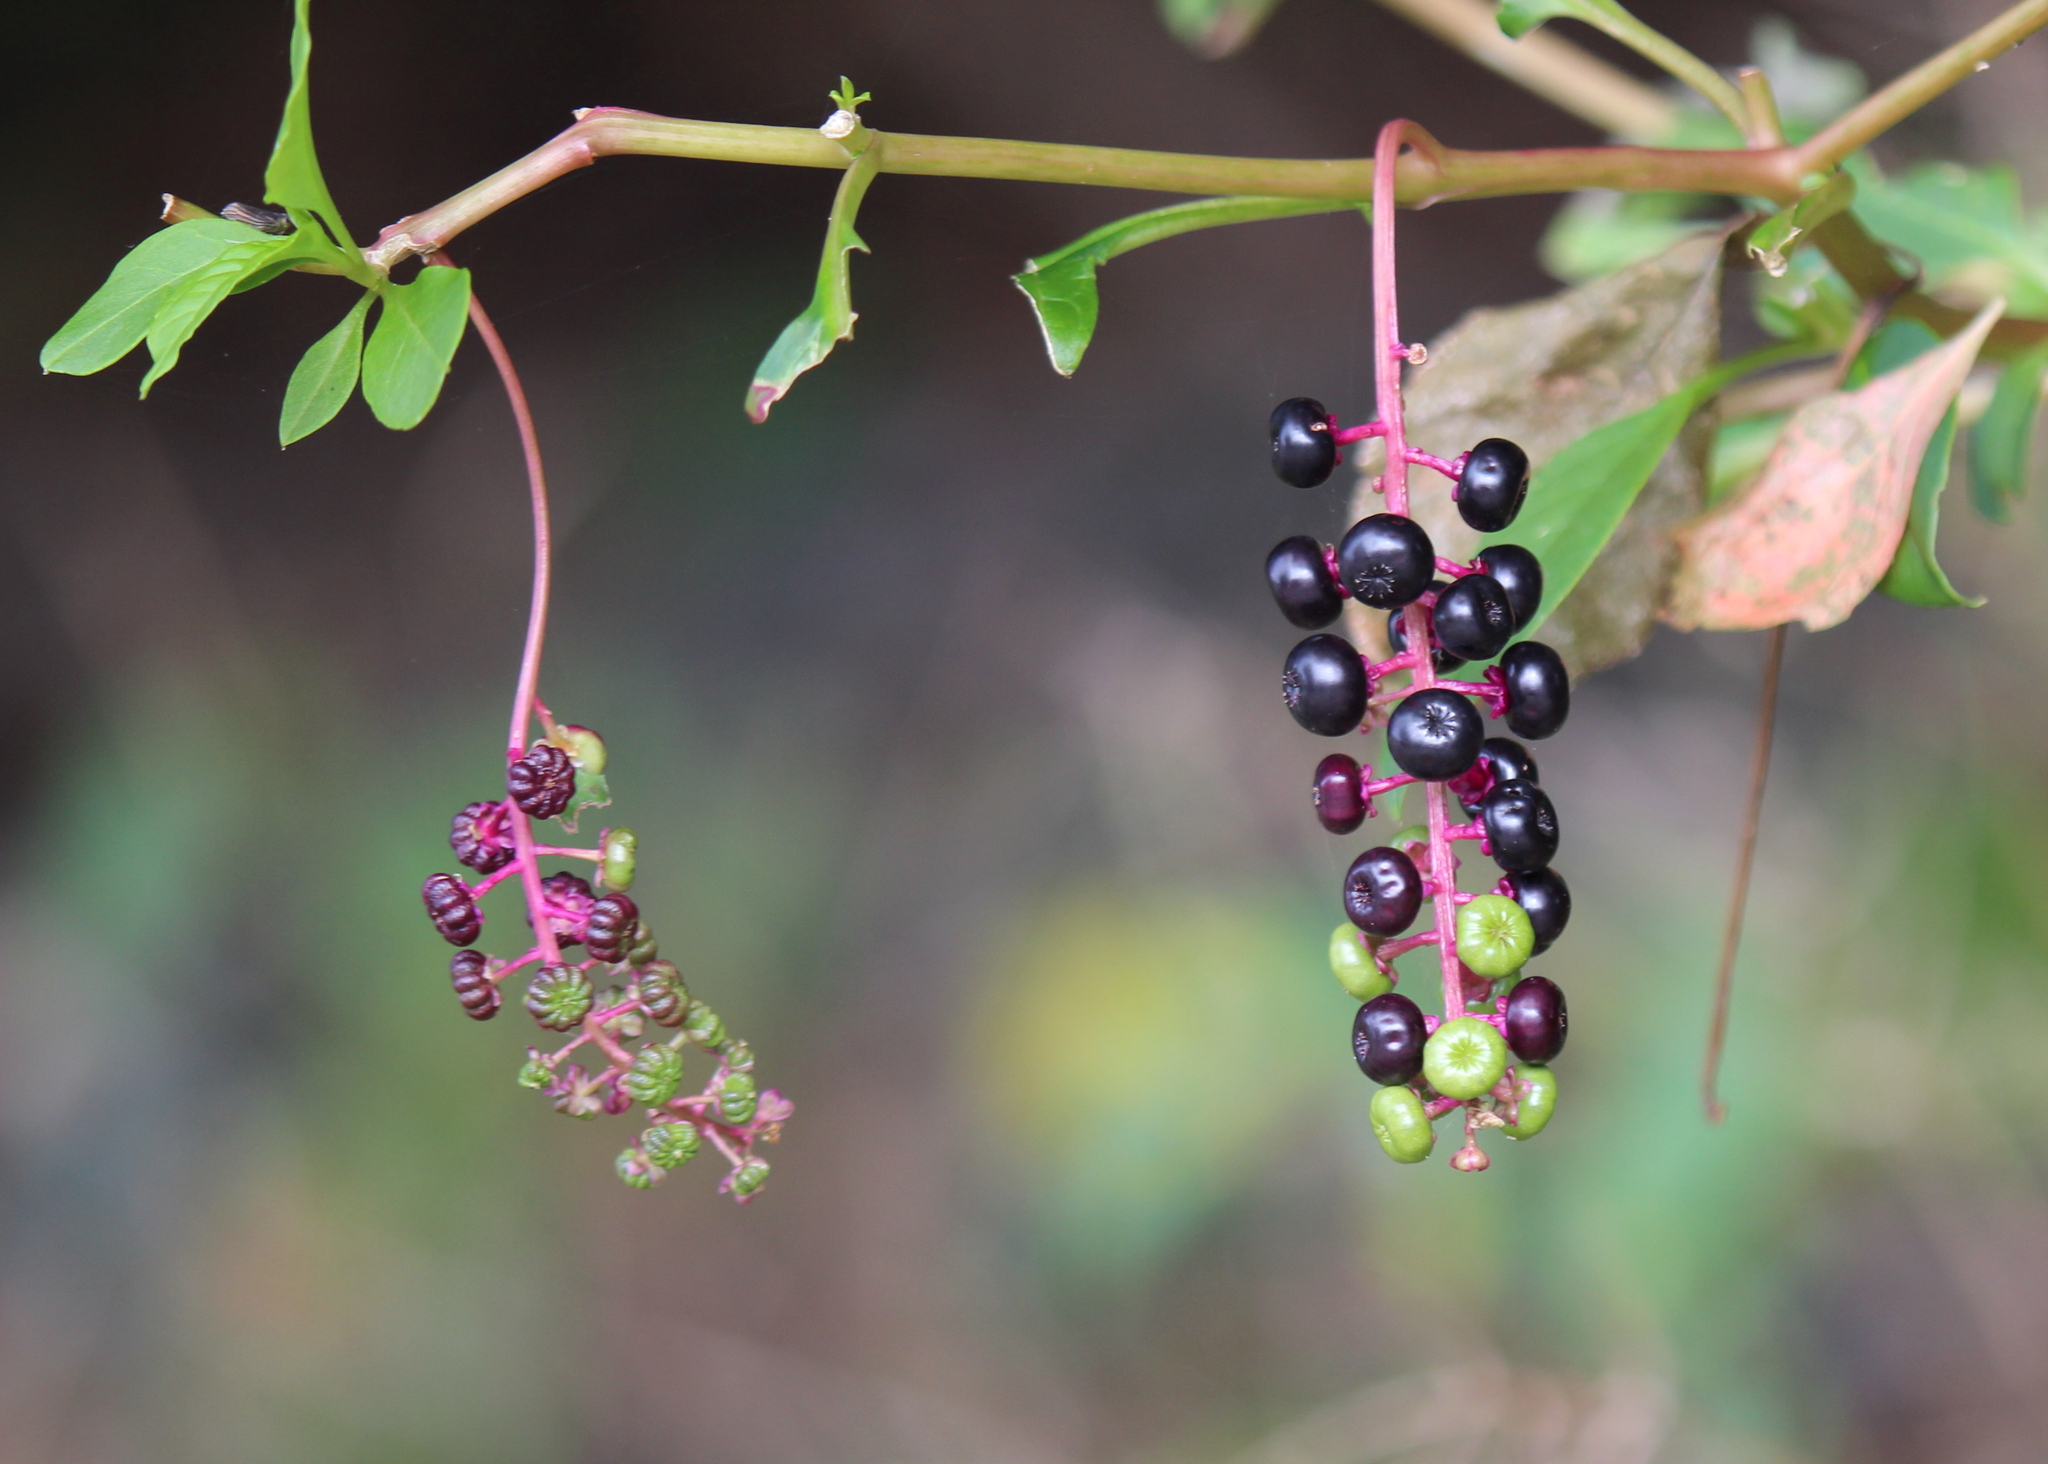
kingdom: Plantae
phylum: Tracheophyta
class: Magnoliopsida
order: Caryophyllales
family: Phytolaccaceae
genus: Phytolacca
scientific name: Phytolacca americana
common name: American pokeweed
